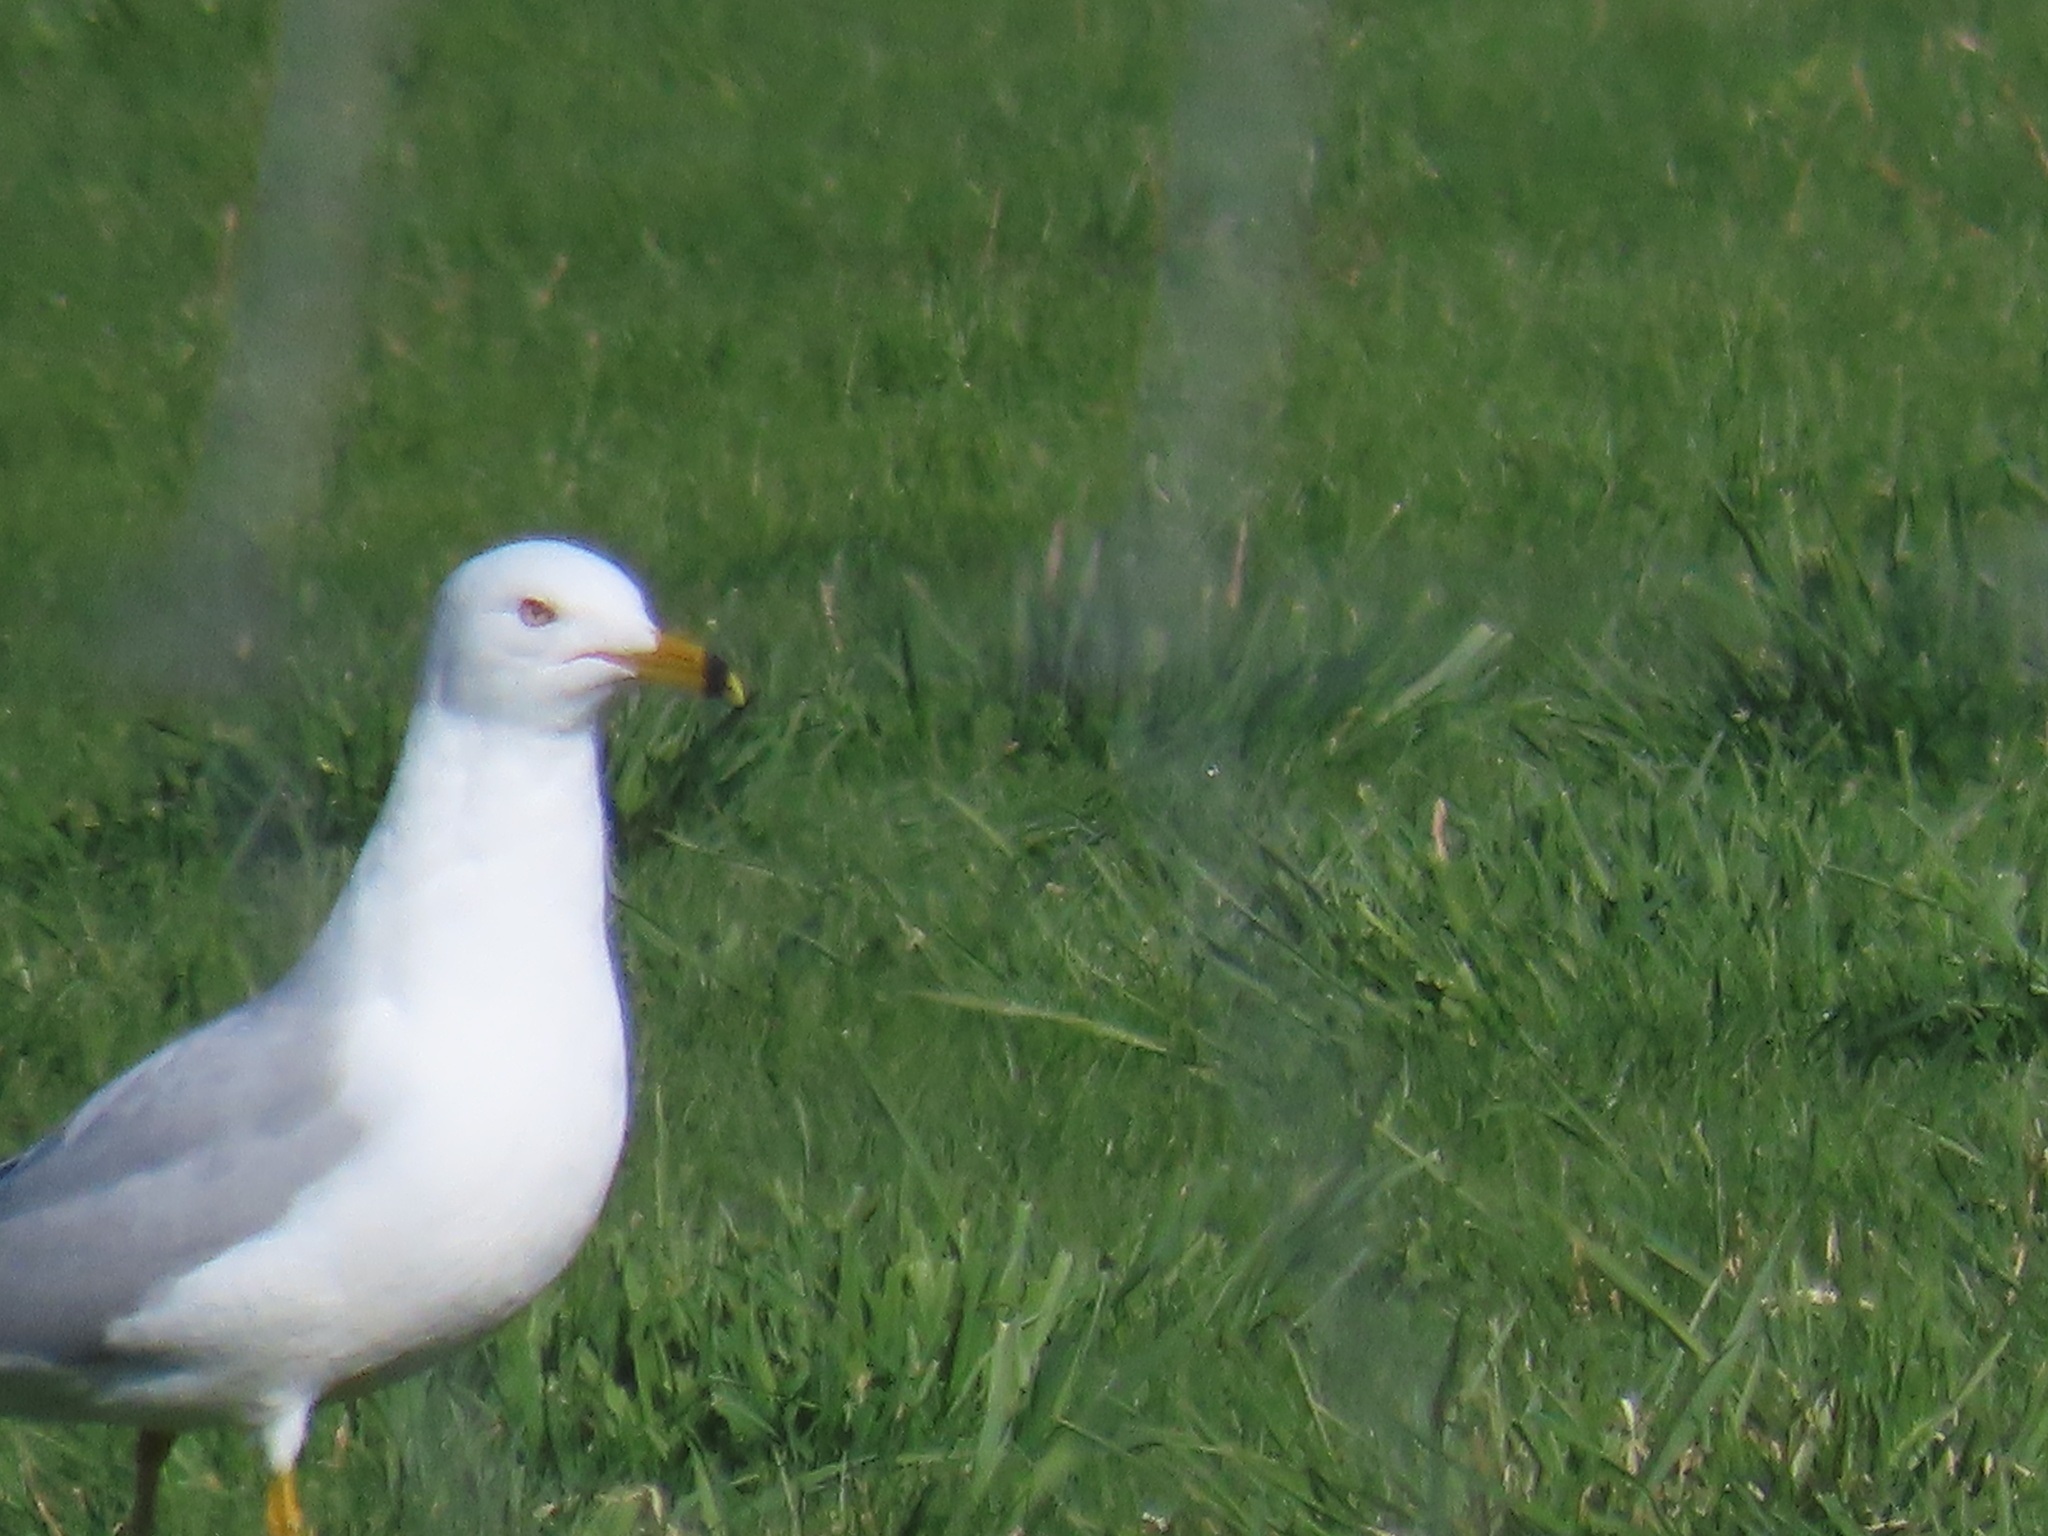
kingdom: Animalia
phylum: Chordata
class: Aves
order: Charadriiformes
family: Laridae
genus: Larus
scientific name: Larus delawarensis
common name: Ring-billed gull
